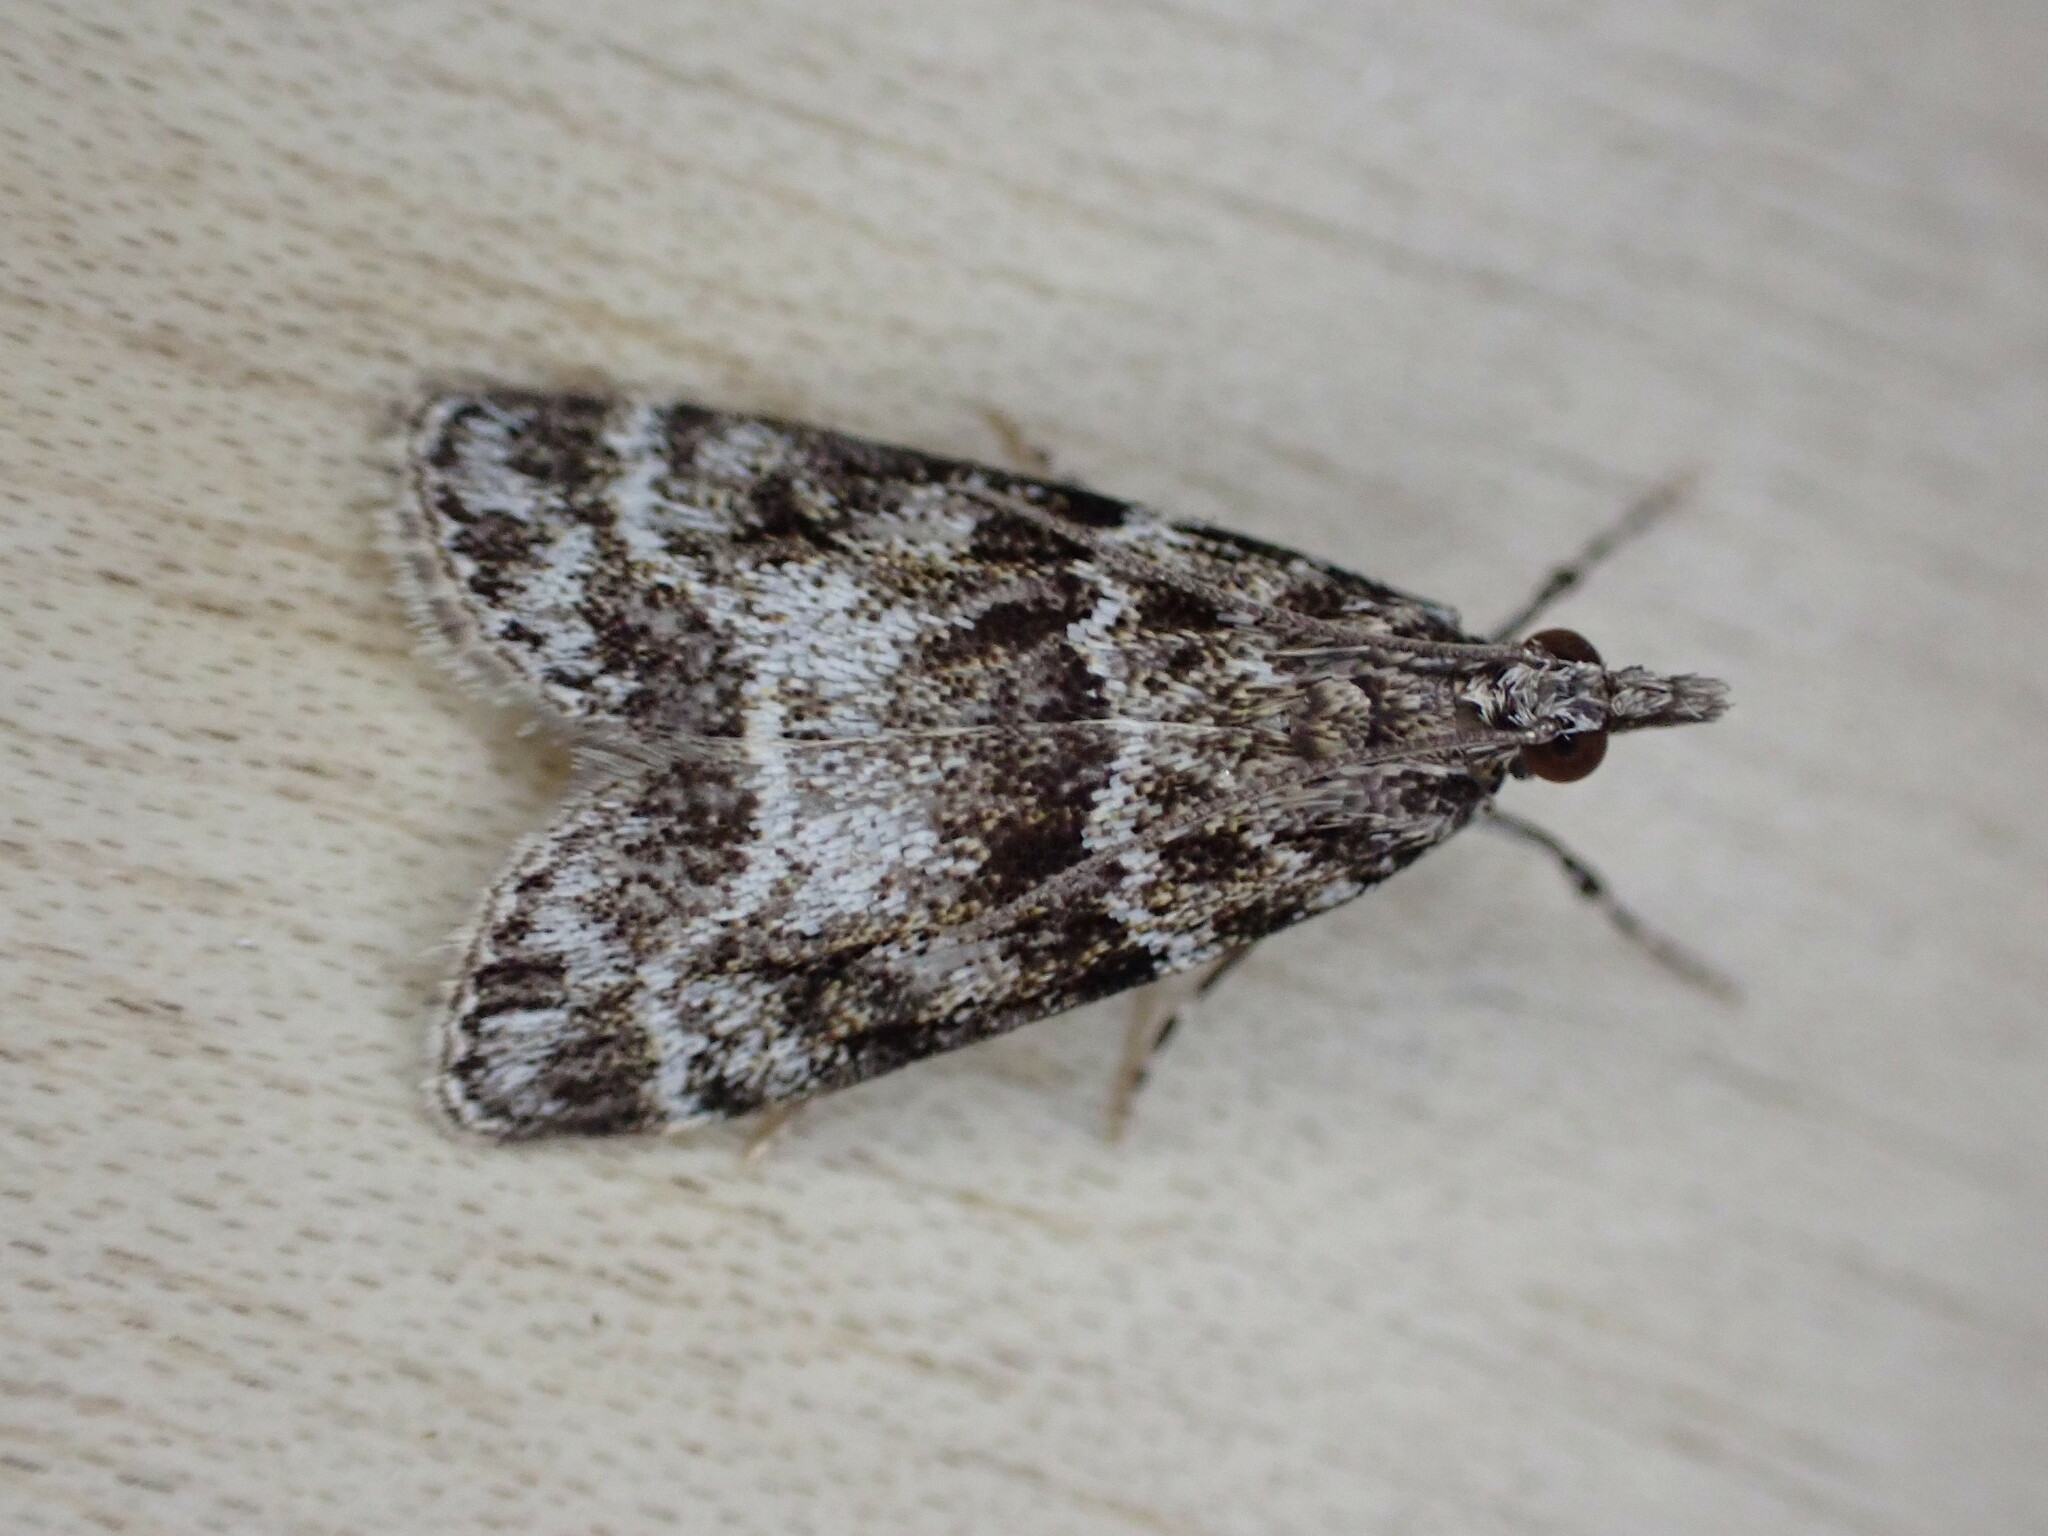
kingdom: Animalia
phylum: Arthropoda
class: Insecta
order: Lepidoptera
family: Crambidae
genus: Eudonia
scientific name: Eudonia mercurella
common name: Small grey
